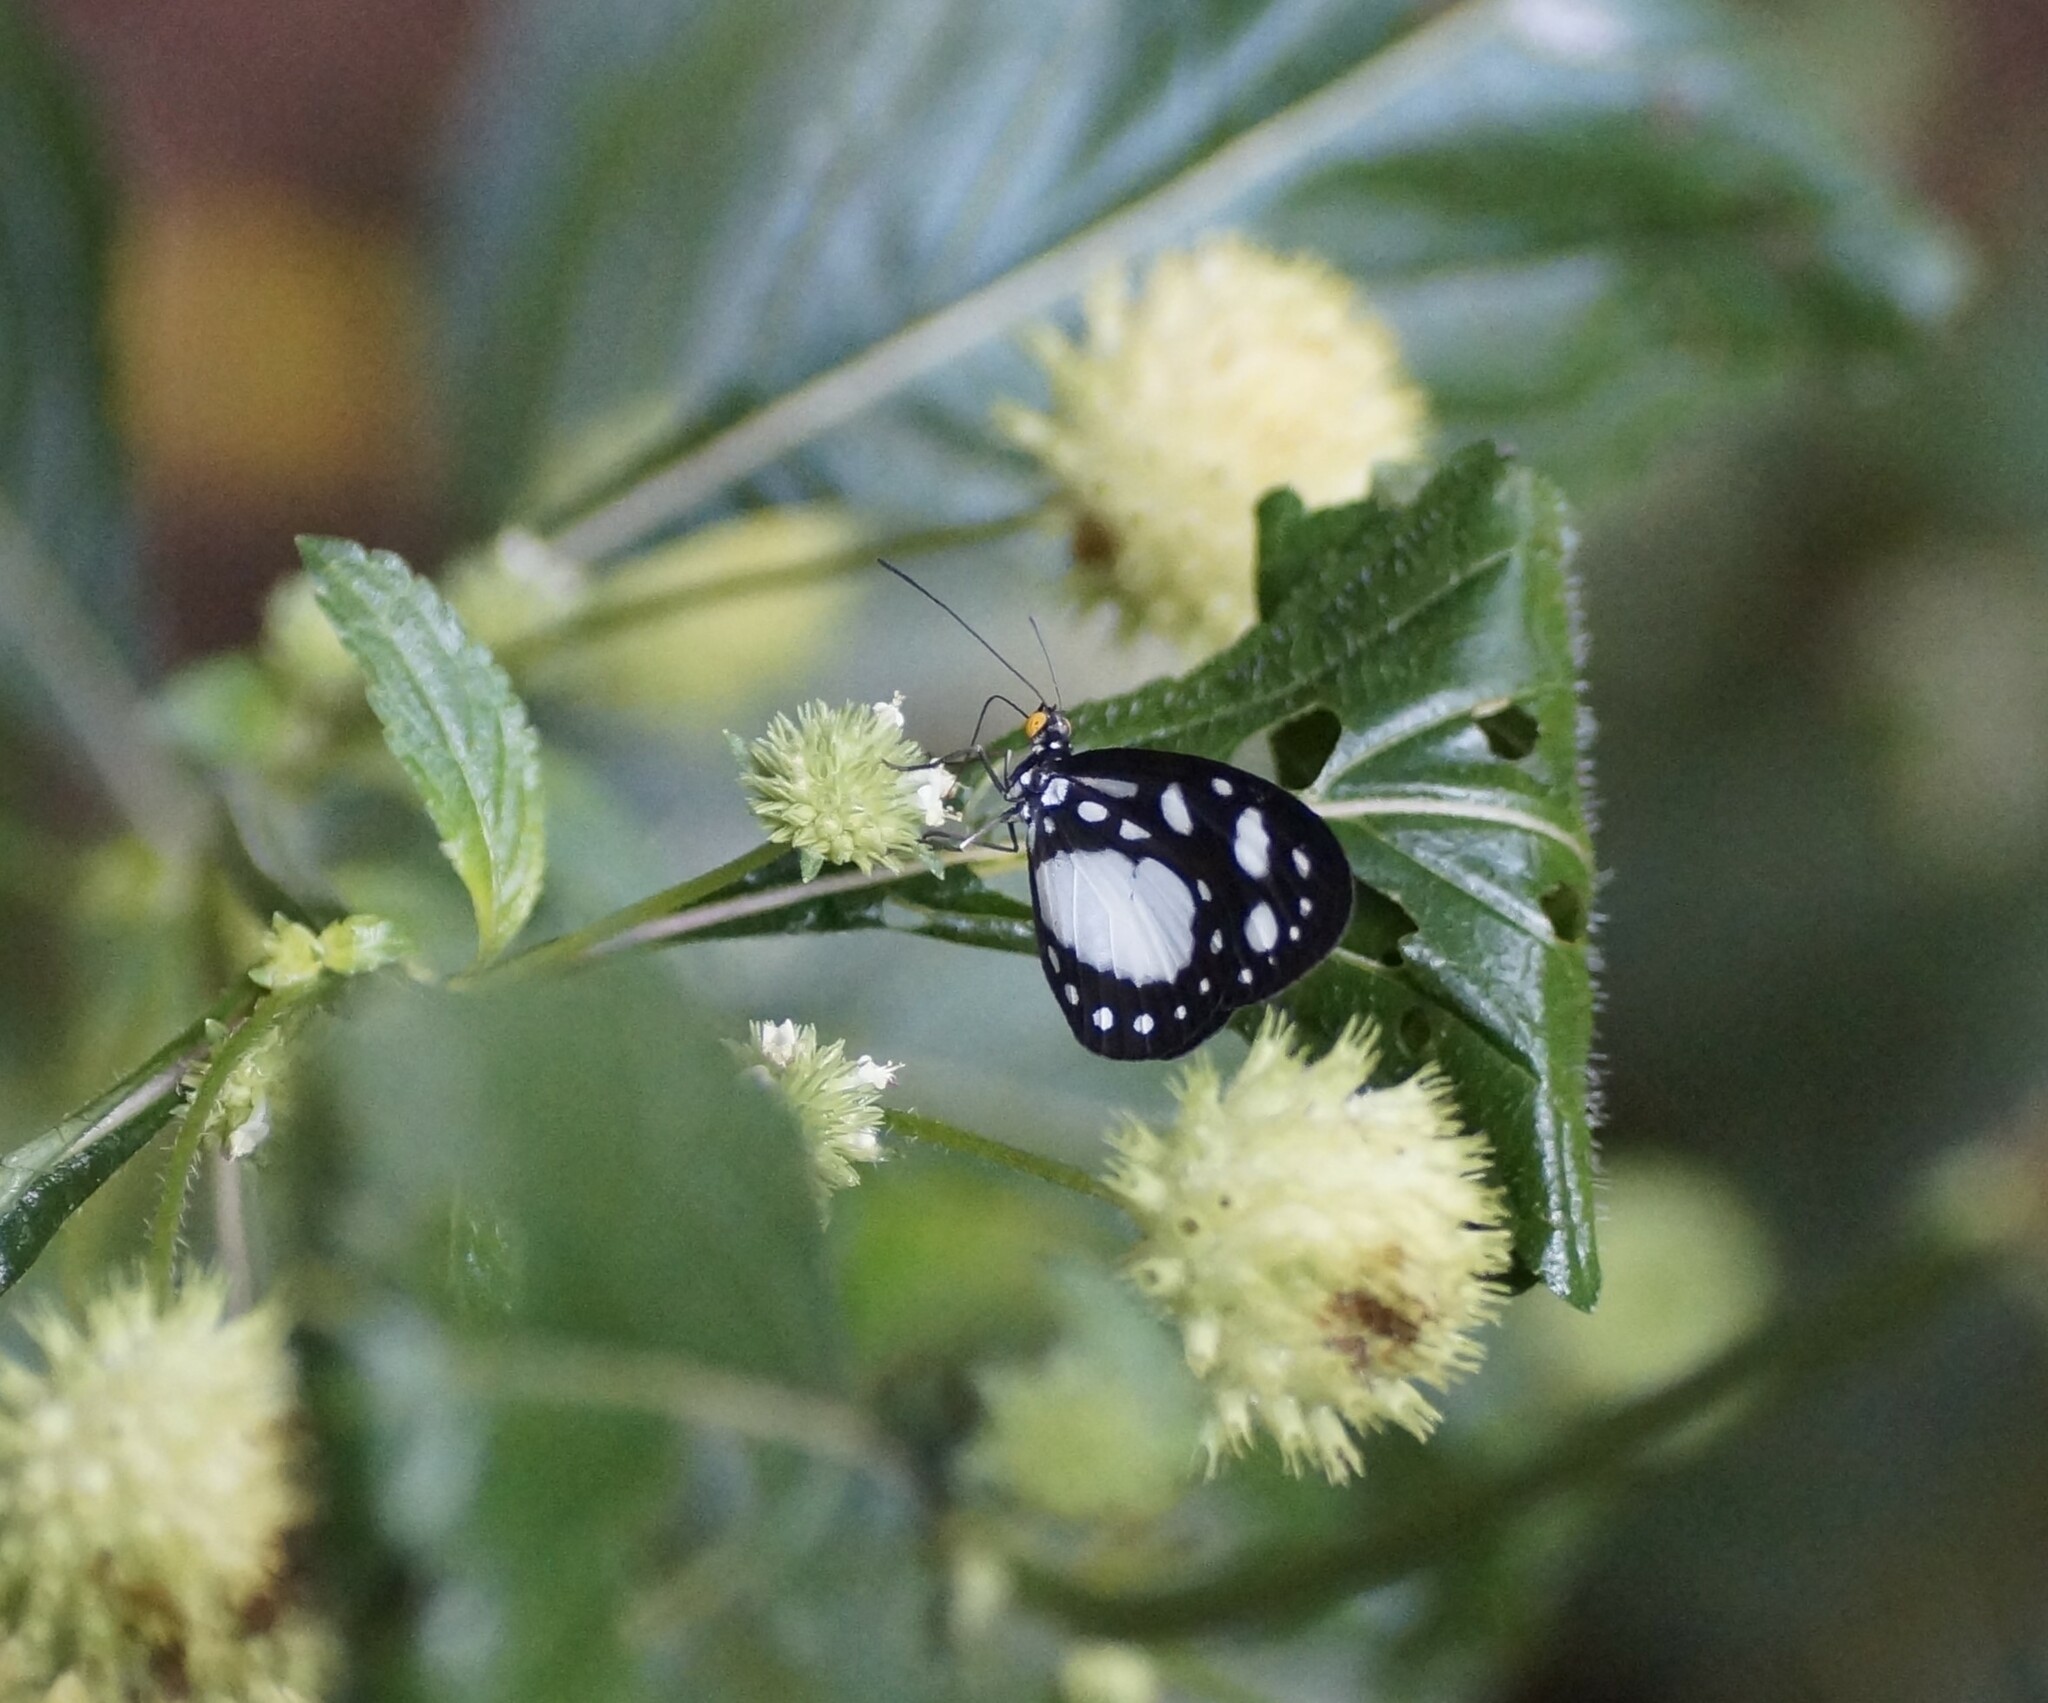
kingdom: Animalia
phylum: Arthropoda
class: Insecta
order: Lepidoptera
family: Nymphalidae
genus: Tellervo
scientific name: Tellervo zoilus
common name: Hamadryad
